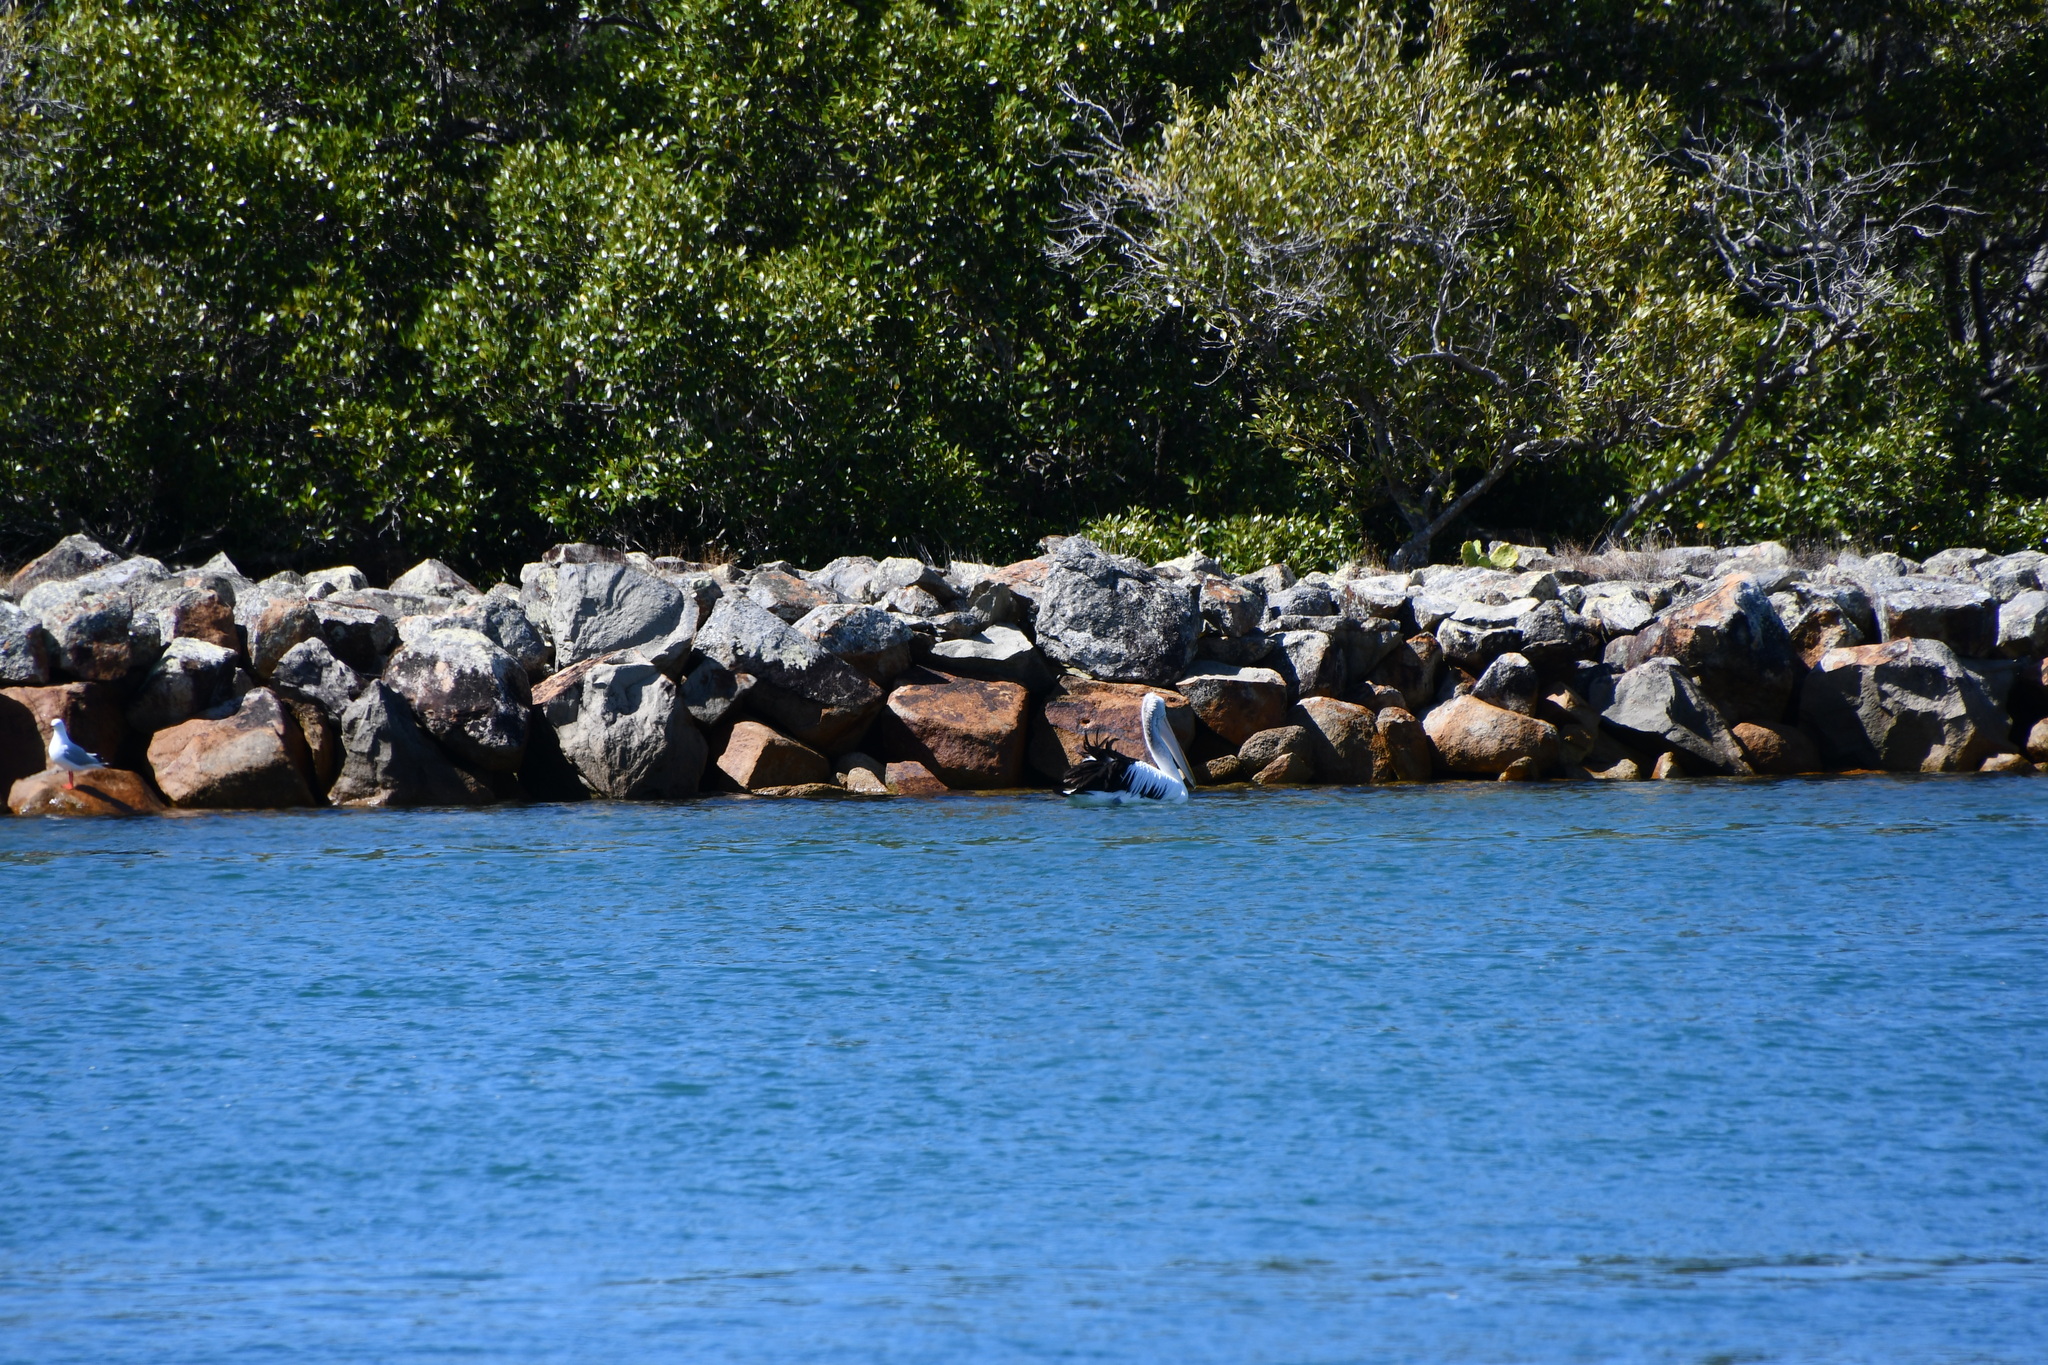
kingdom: Animalia
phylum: Chordata
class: Aves
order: Pelecaniformes
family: Pelecanidae
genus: Pelecanus
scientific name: Pelecanus conspicillatus
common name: Australian pelican
